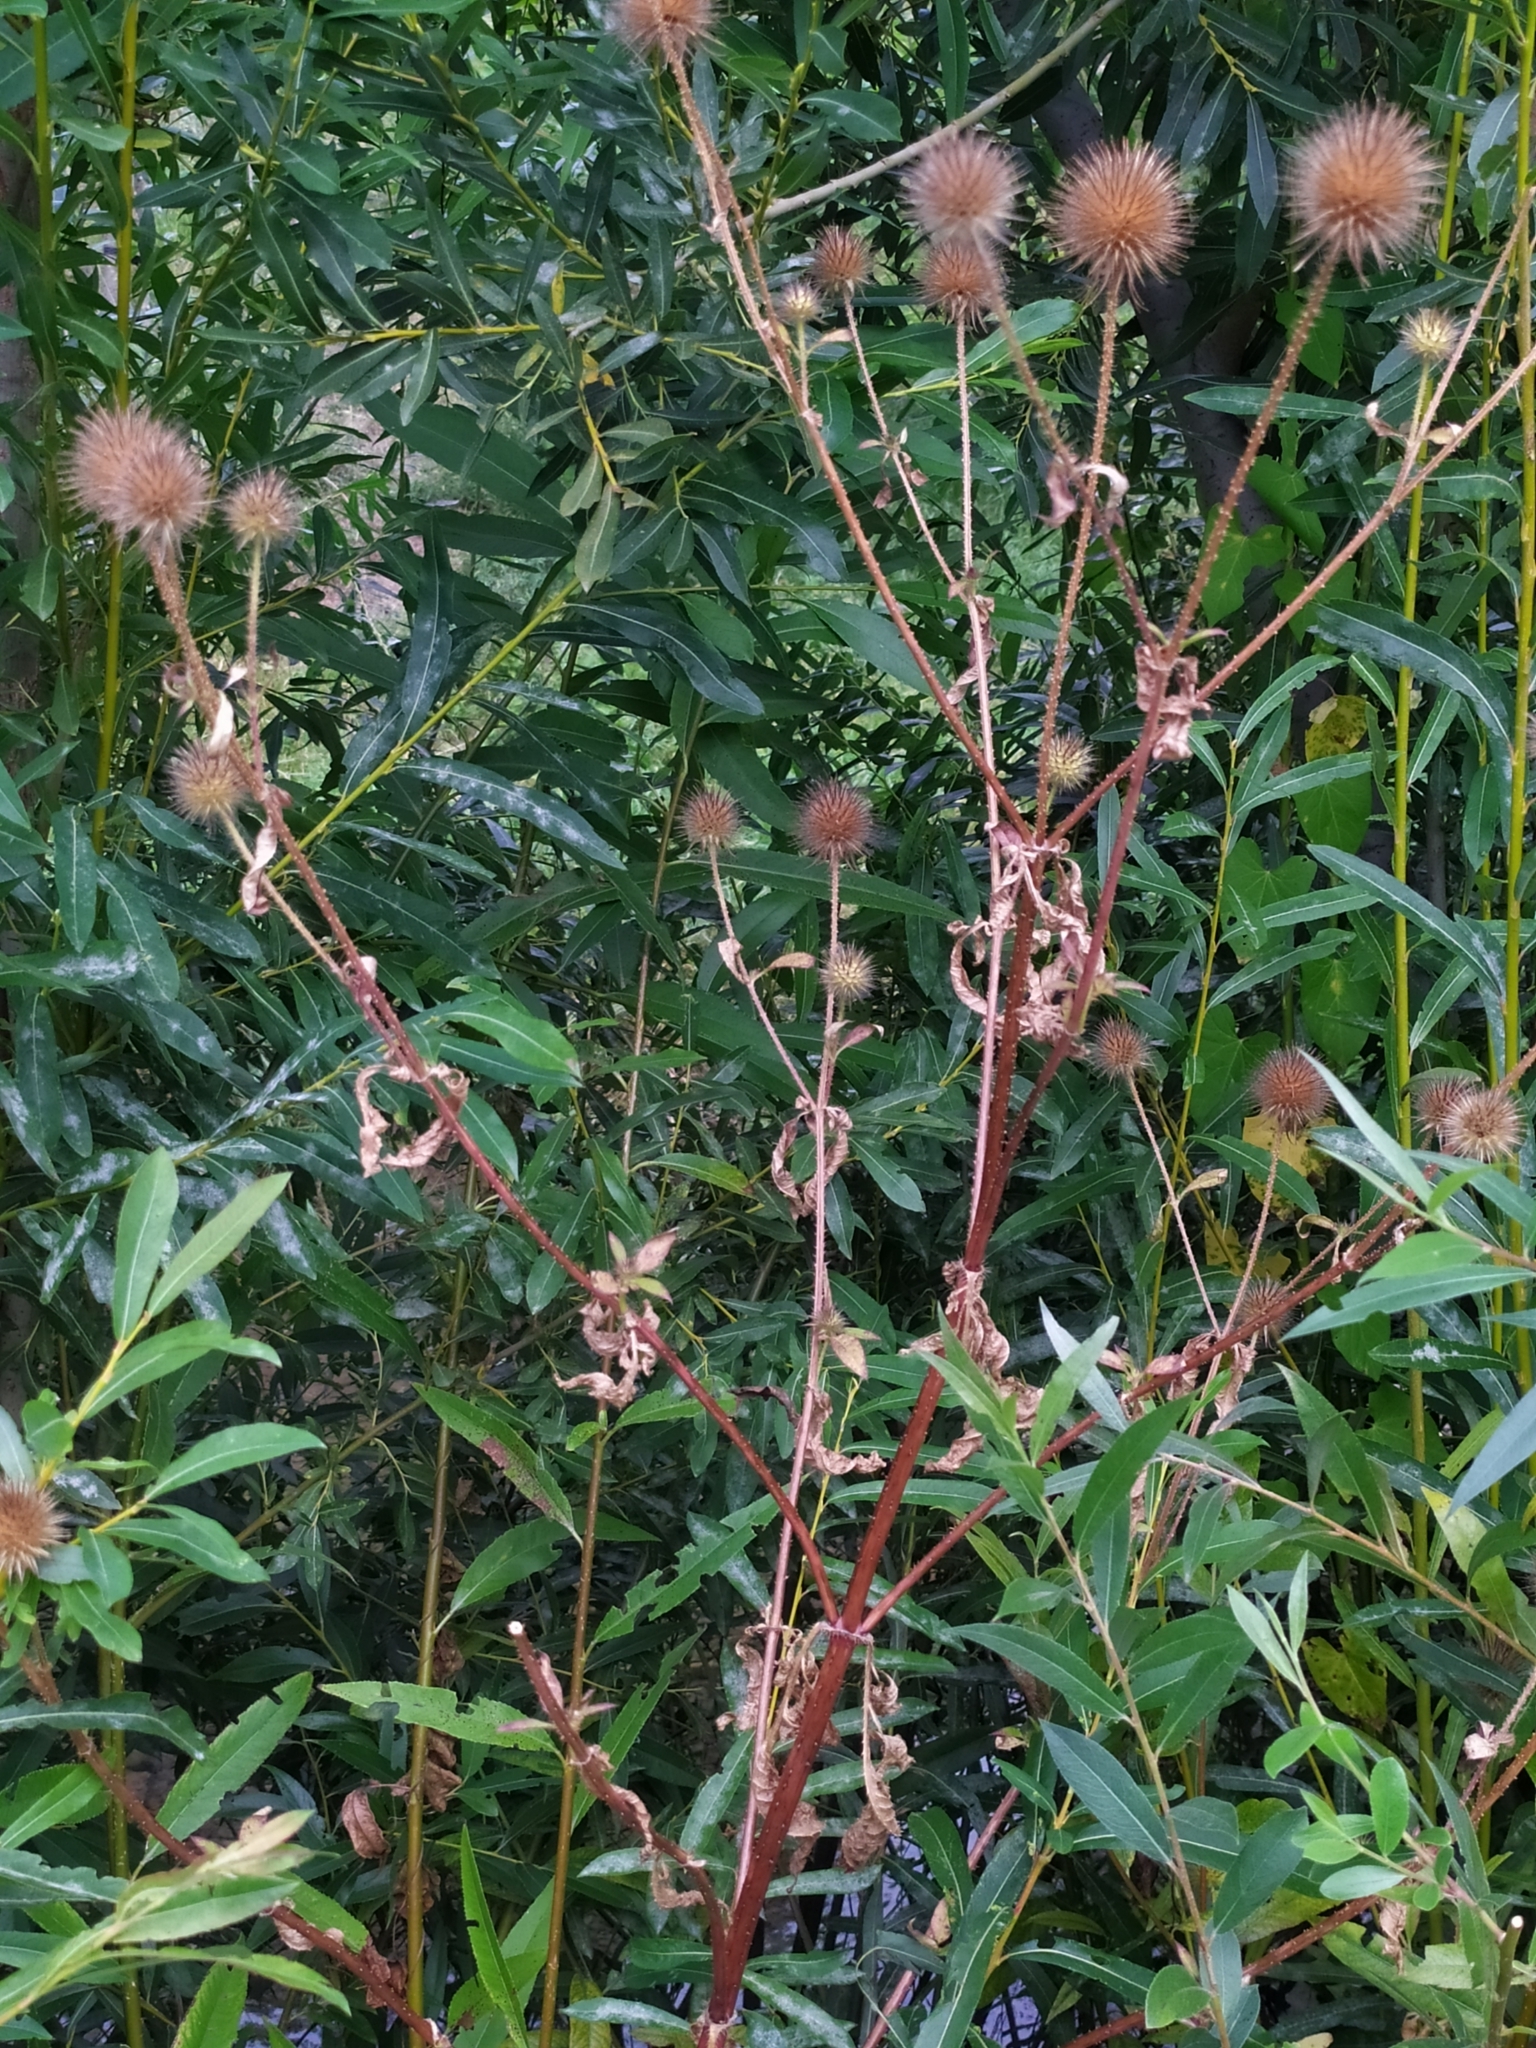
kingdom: Plantae
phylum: Tracheophyta
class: Magnoliopsida
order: Dipsacales
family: Caprifoliaceae
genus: Dipsacus
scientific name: Dipsacus strigosus
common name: Yellow-flowered teasel
